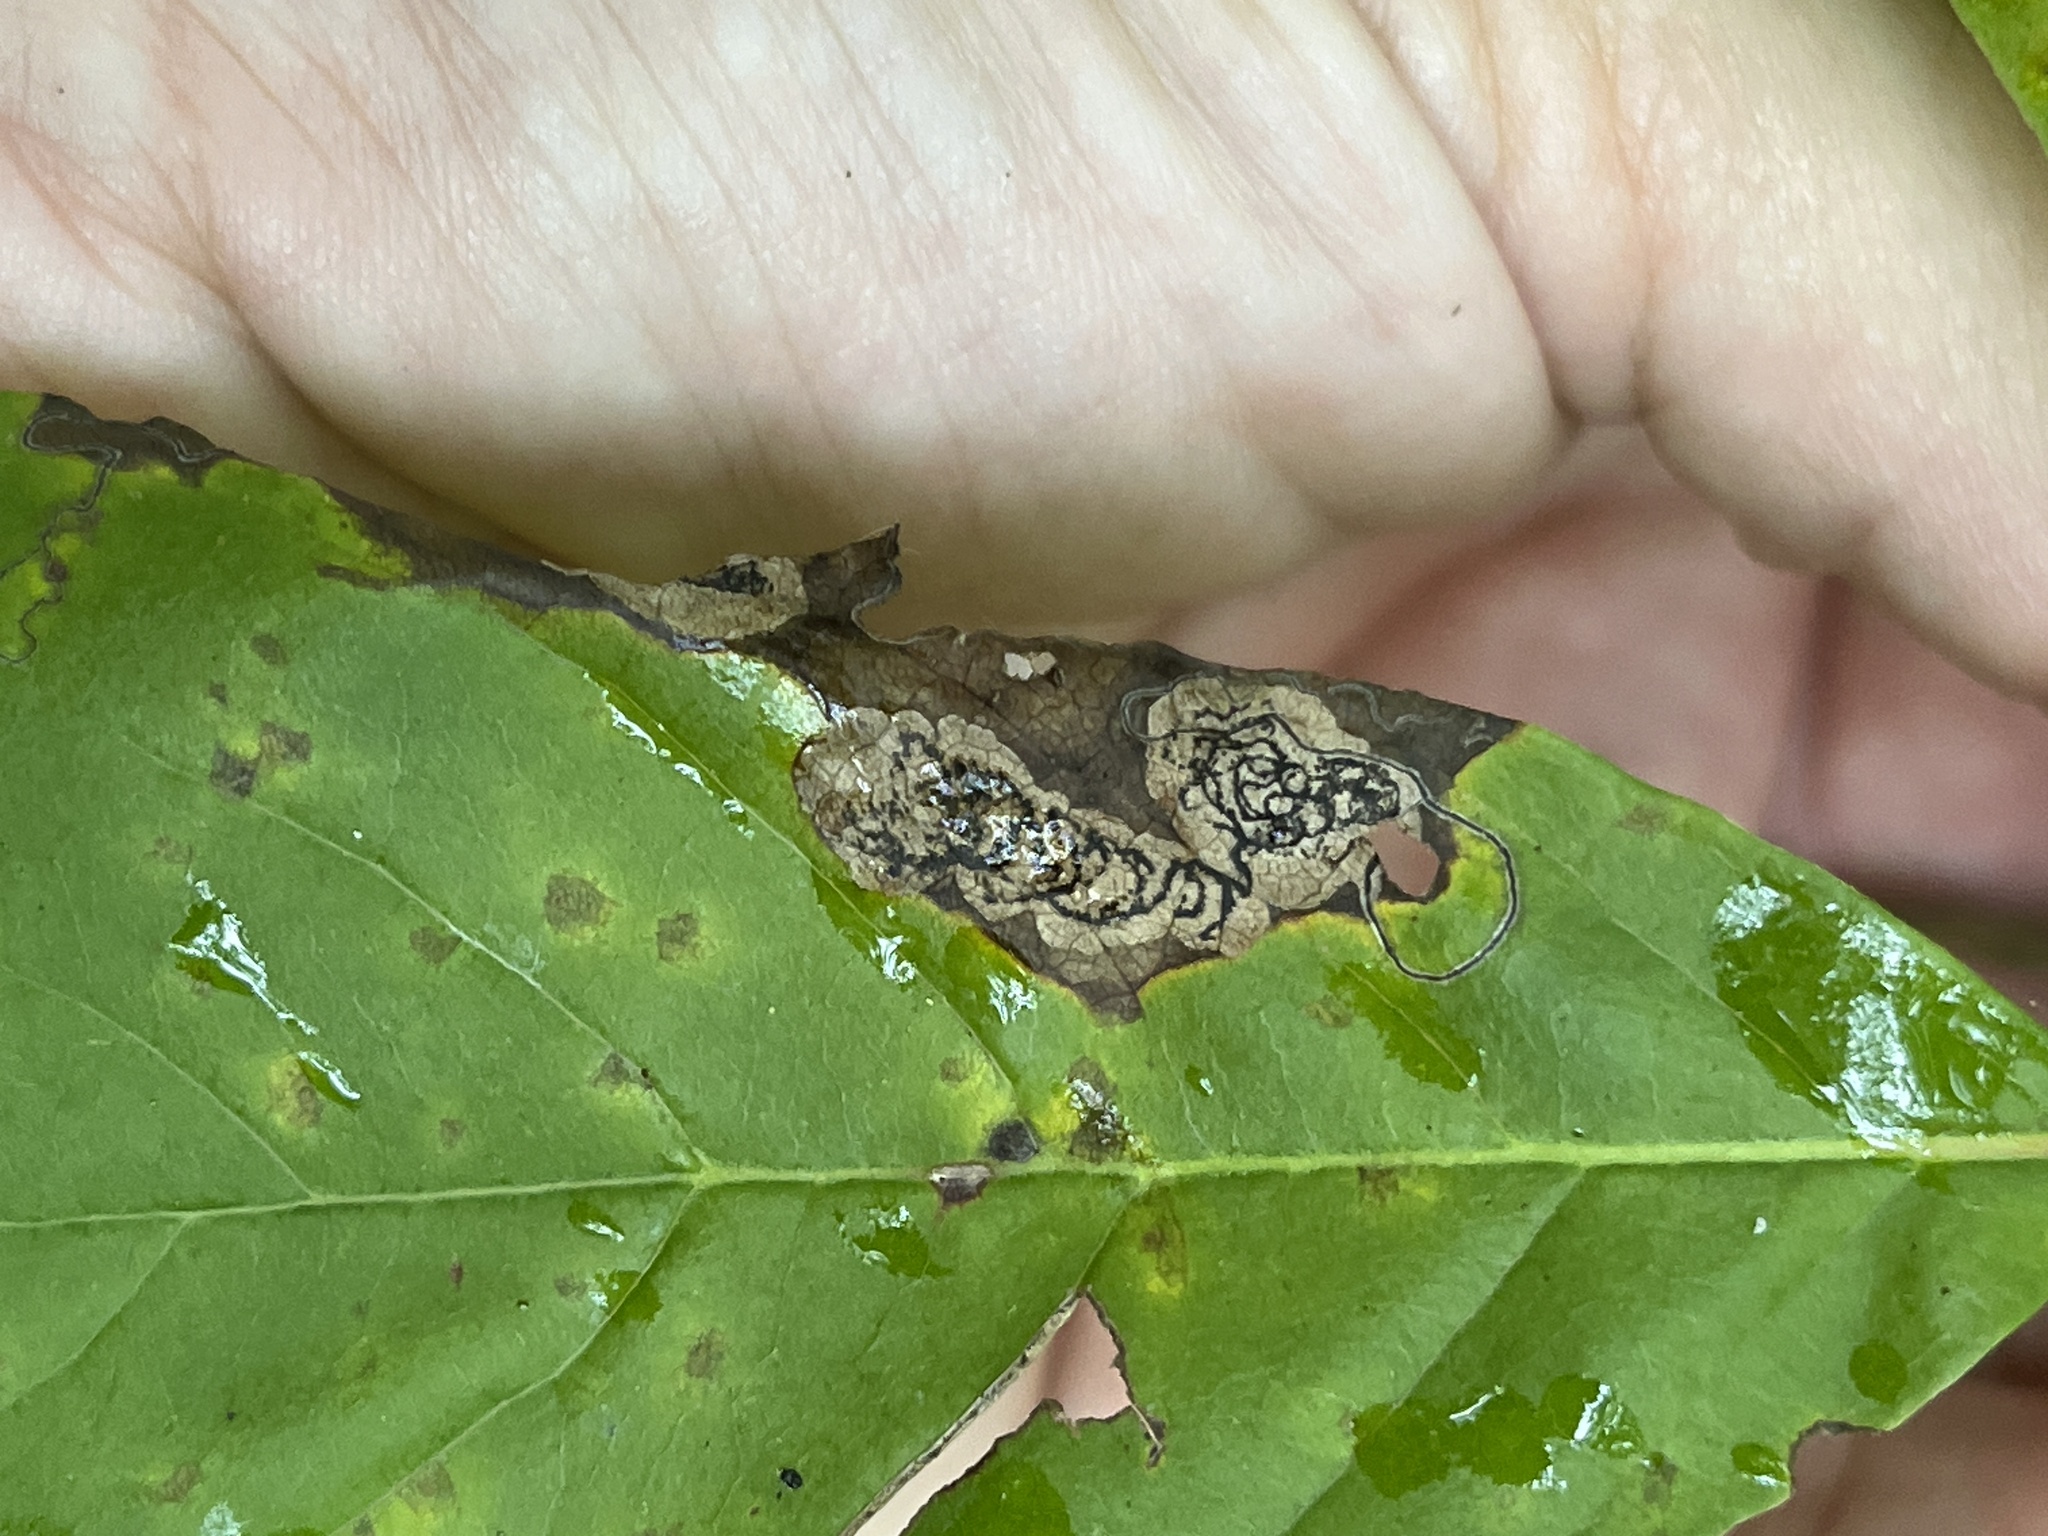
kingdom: Animalia
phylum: Arthropoda
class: Insecta
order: Lepidoptera
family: Nepticulidae
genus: Ectoedemia
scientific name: Ectoedemia nyssaefoliella
